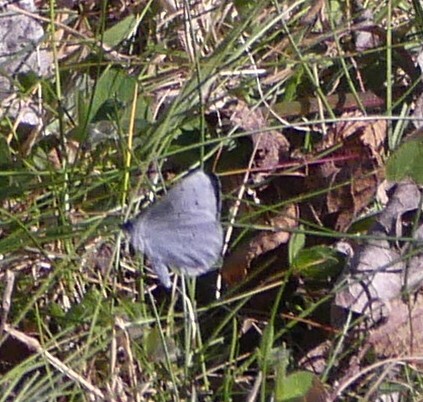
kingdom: Animalia
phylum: Arthropoda
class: Insecta
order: Lepidoptera
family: Lycaenidae
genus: Celastrina
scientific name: Celastrina argiolus
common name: Holly blue
